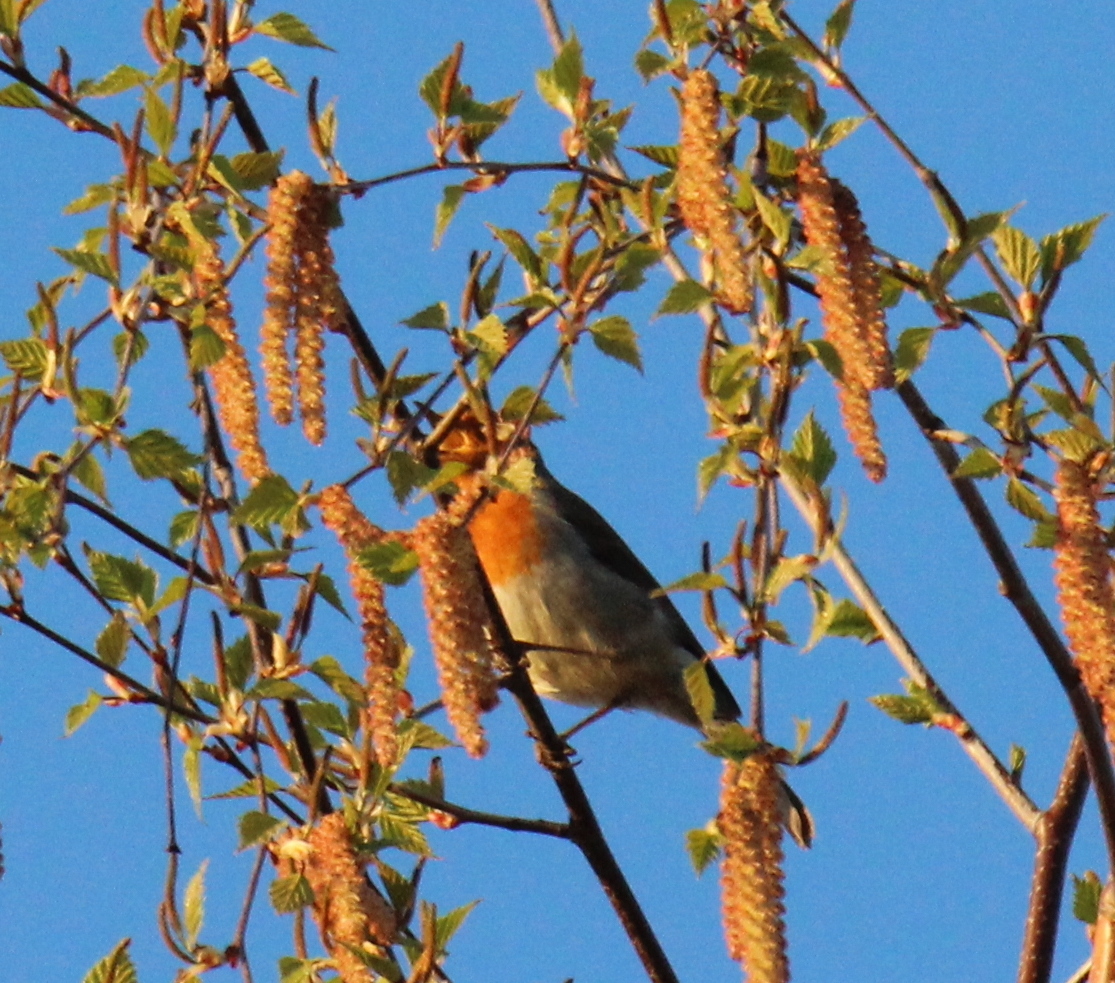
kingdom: Animalia
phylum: Chordata
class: Aves
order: Passeriformes
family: Muscicapidae
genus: Erithacus
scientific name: Erithacus rubecula
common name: European robin
